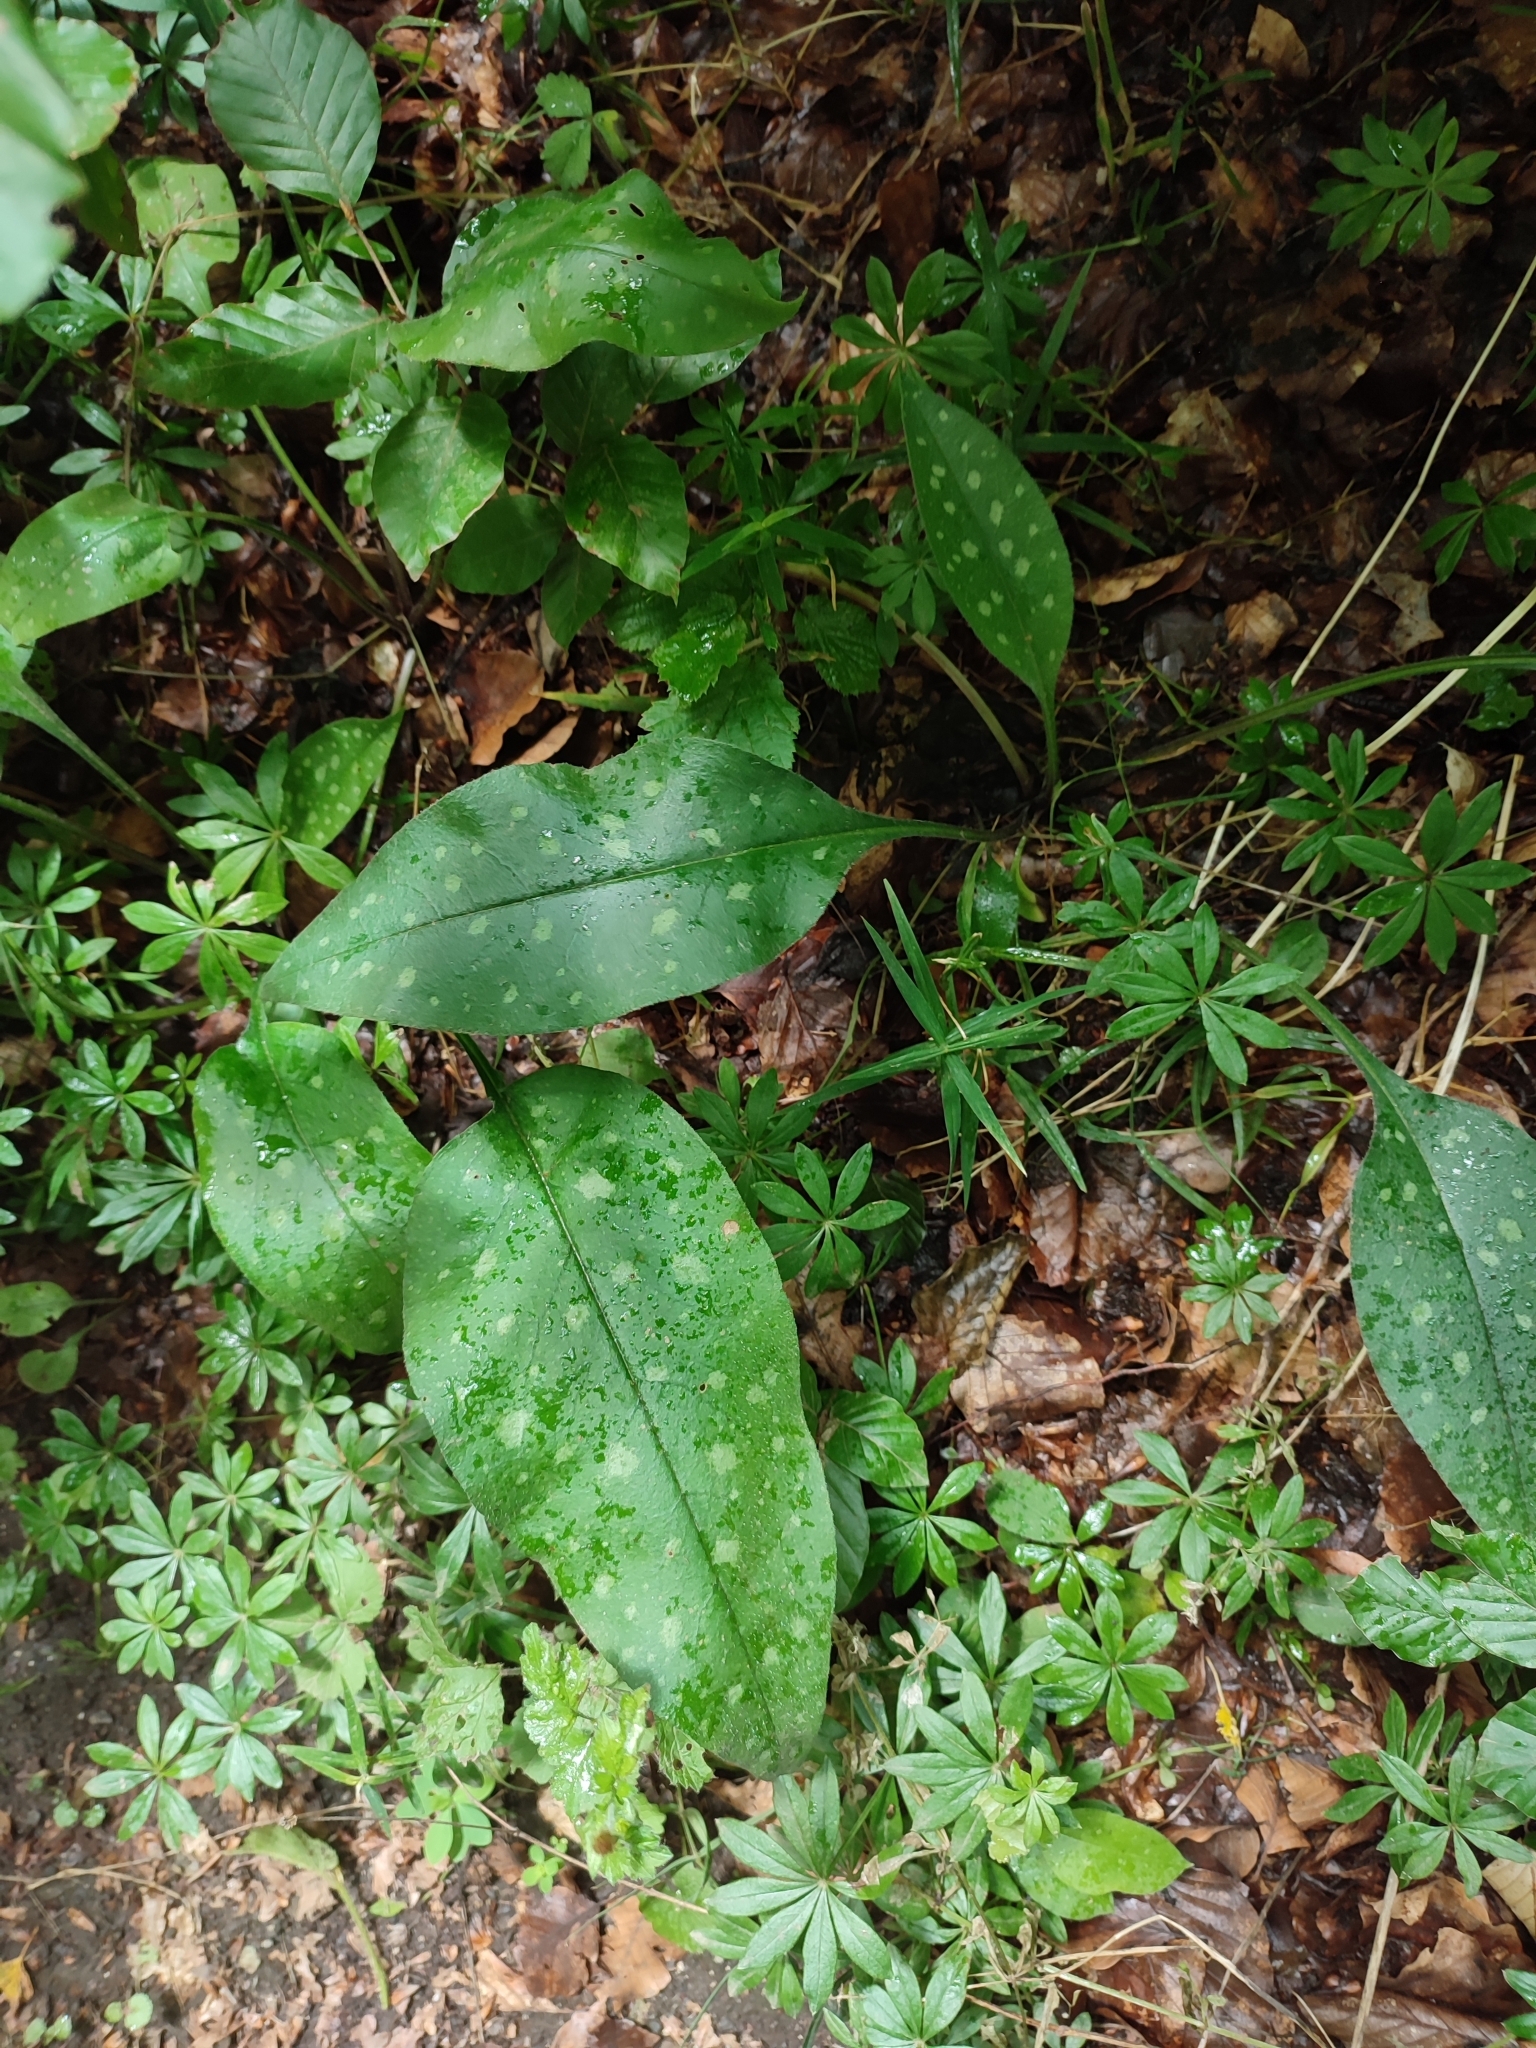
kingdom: Plantae
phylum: Tracheophyta
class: Magnoliopsida
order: Boraginales
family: Boraginaceae
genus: Pulmonaria
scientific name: Pulmonaria affinis
